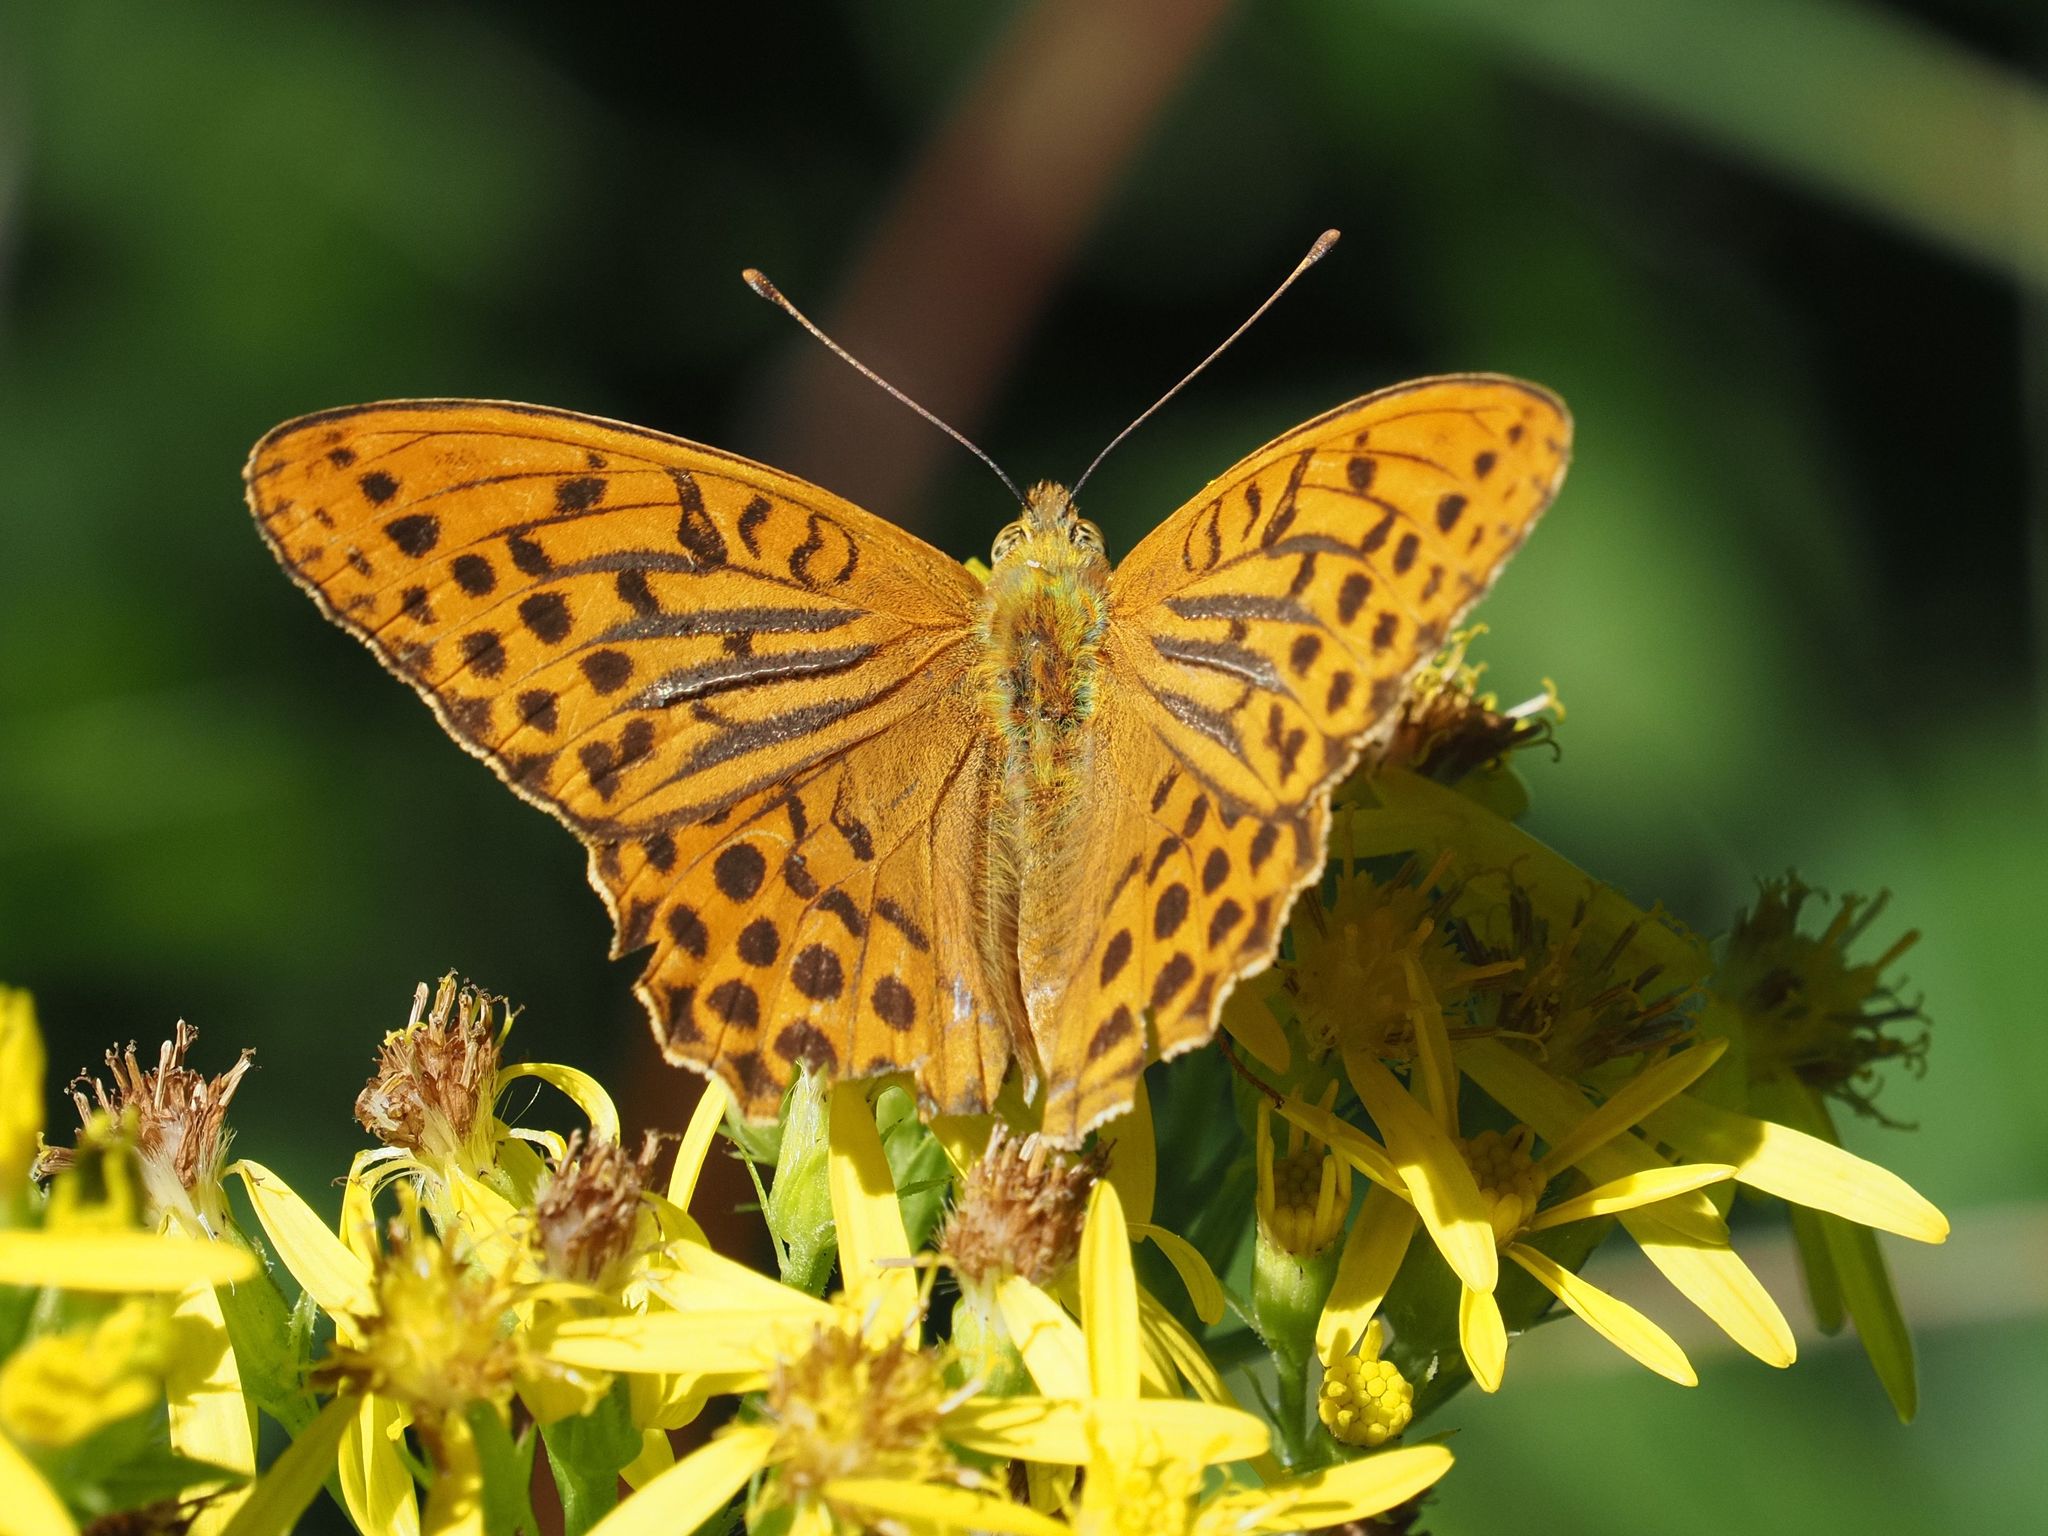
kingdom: Animalia
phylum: Arthropoda
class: Insecta
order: Lepidoptera
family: Nymphalidae
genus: Argynnis
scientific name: Argynnis paphia
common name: Silver-washed fritillary
